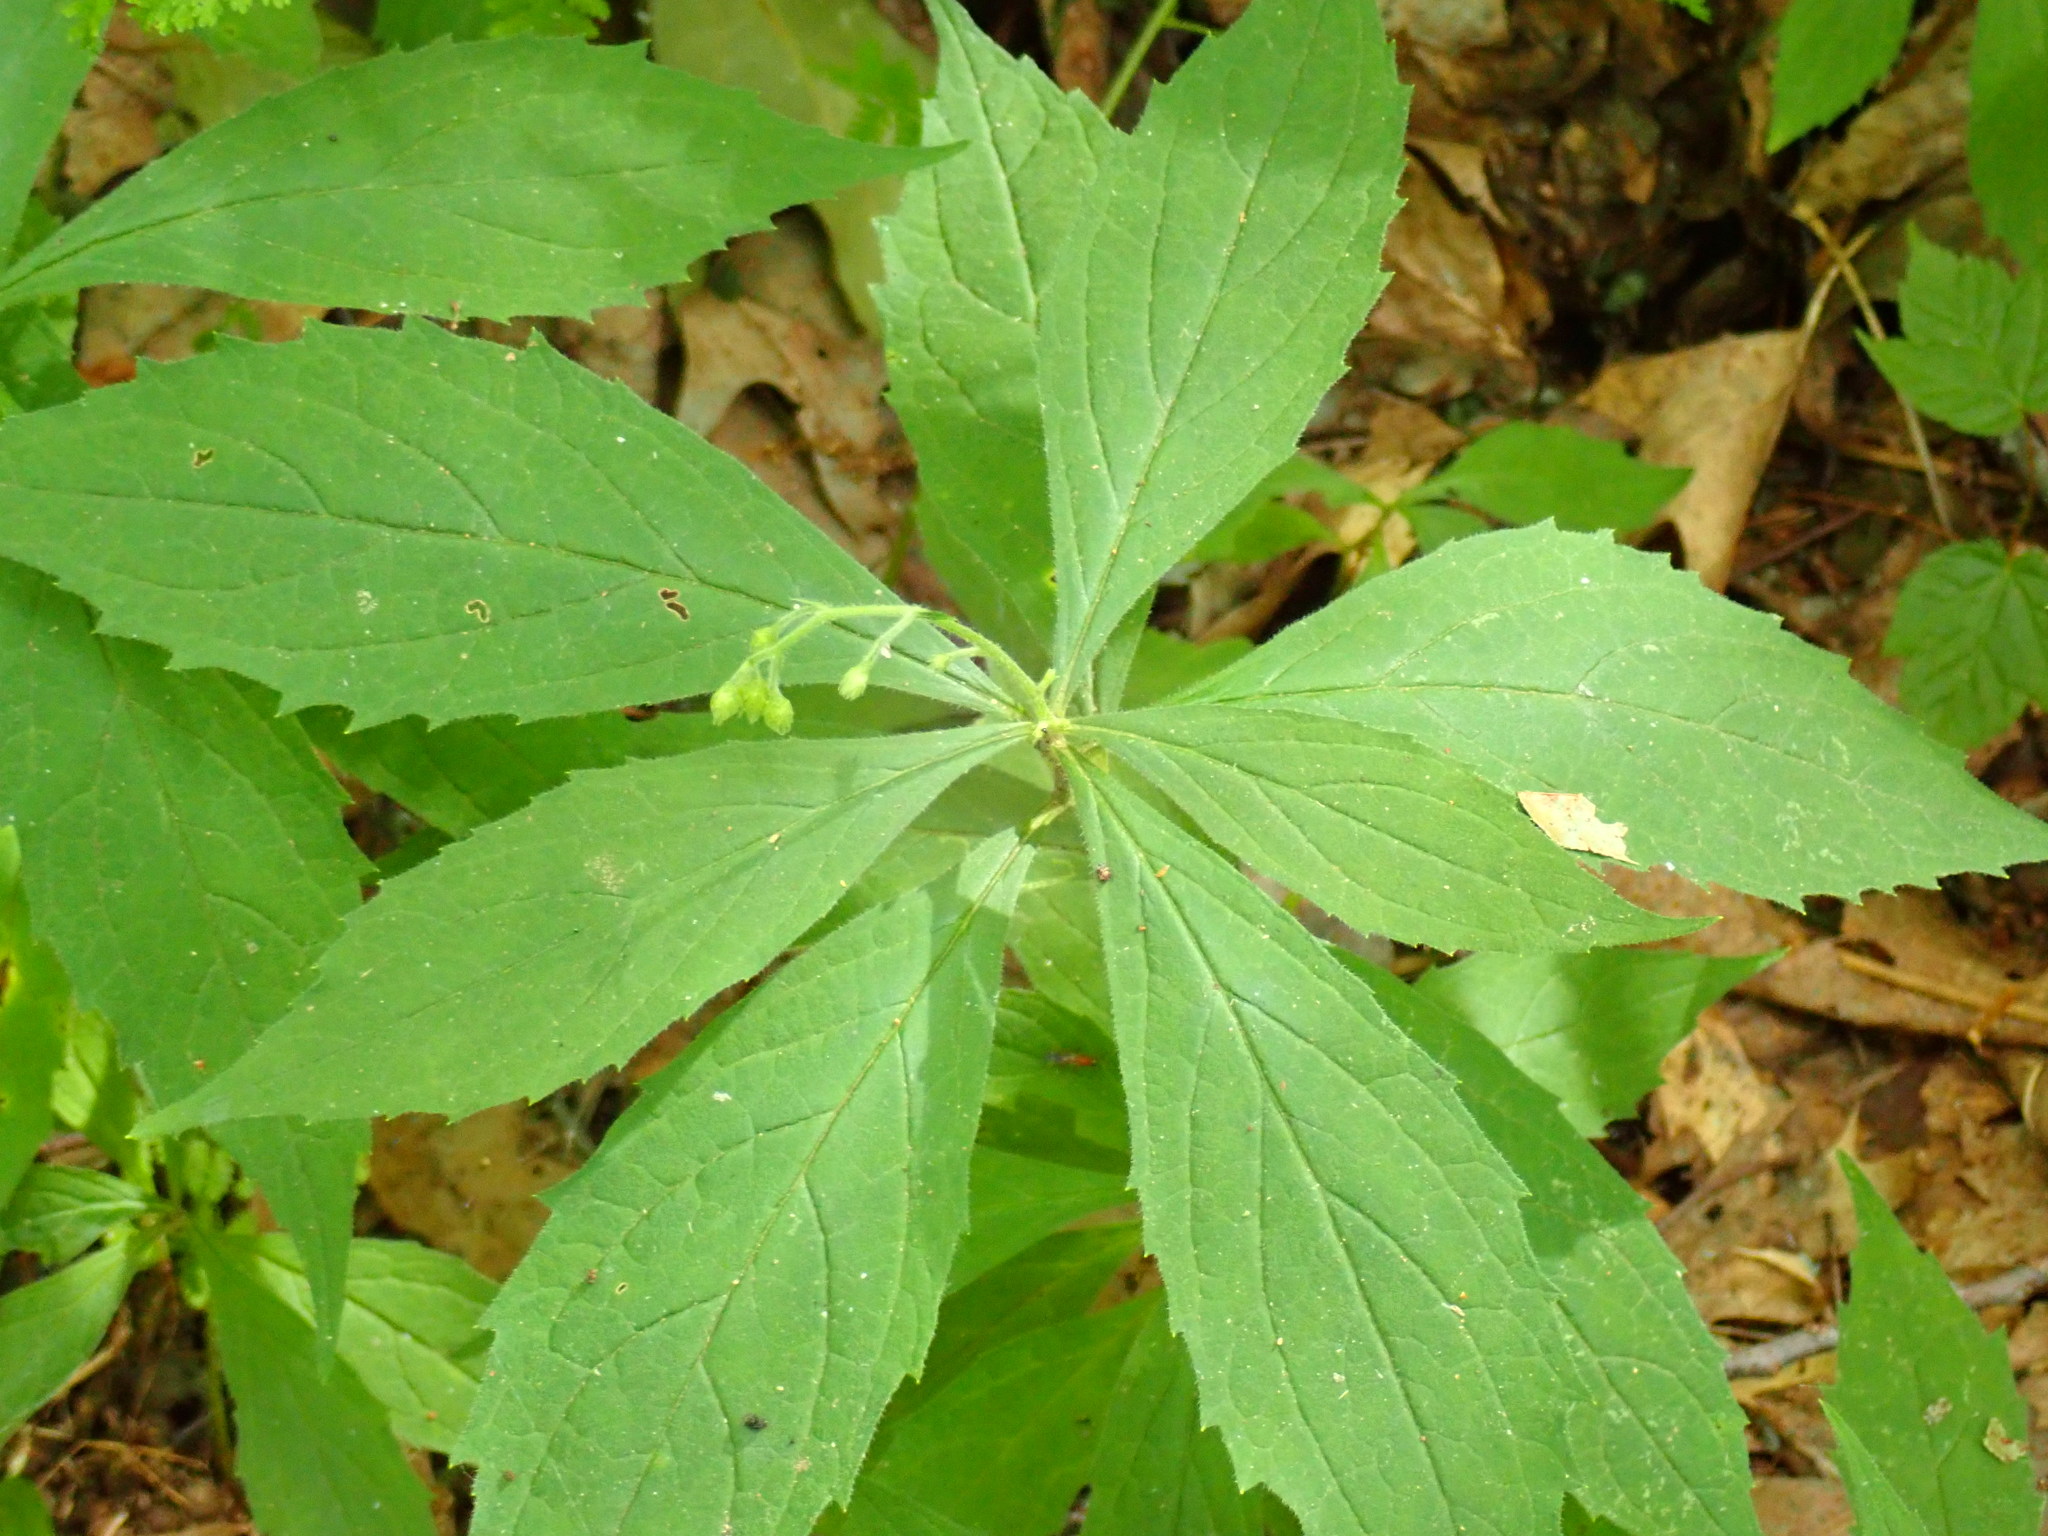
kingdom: Plantae
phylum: Tracheophyta
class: Magnoliopsida
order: Asterales
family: Asteraceae
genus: Oclemena
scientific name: Oclemena acuminata
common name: Mountain aster
